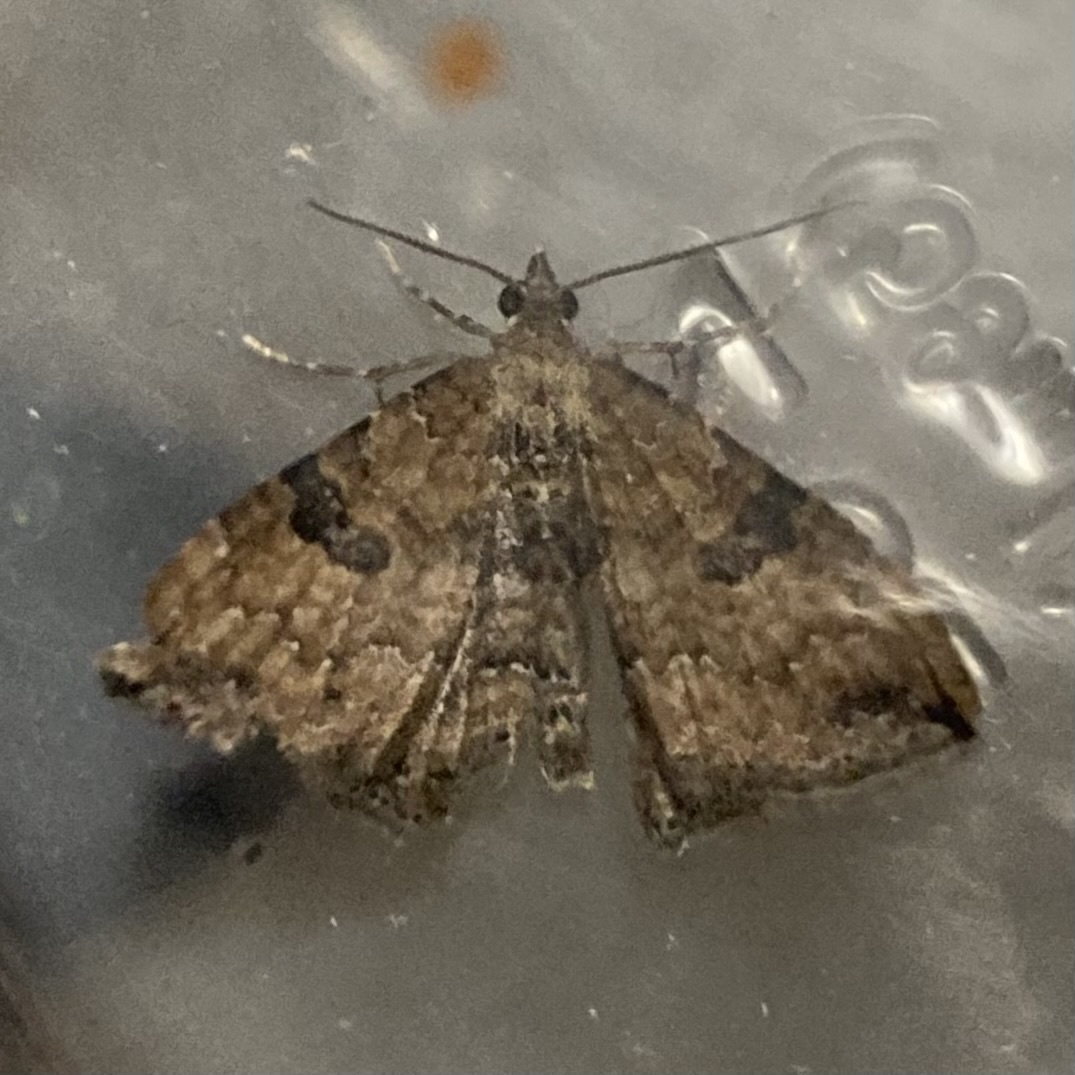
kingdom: Animalia
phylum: Arthropoda
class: Insecta
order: Lepidoptera
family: Geometridae
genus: Orthonama
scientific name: Orthonama obstipata
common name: The gem
